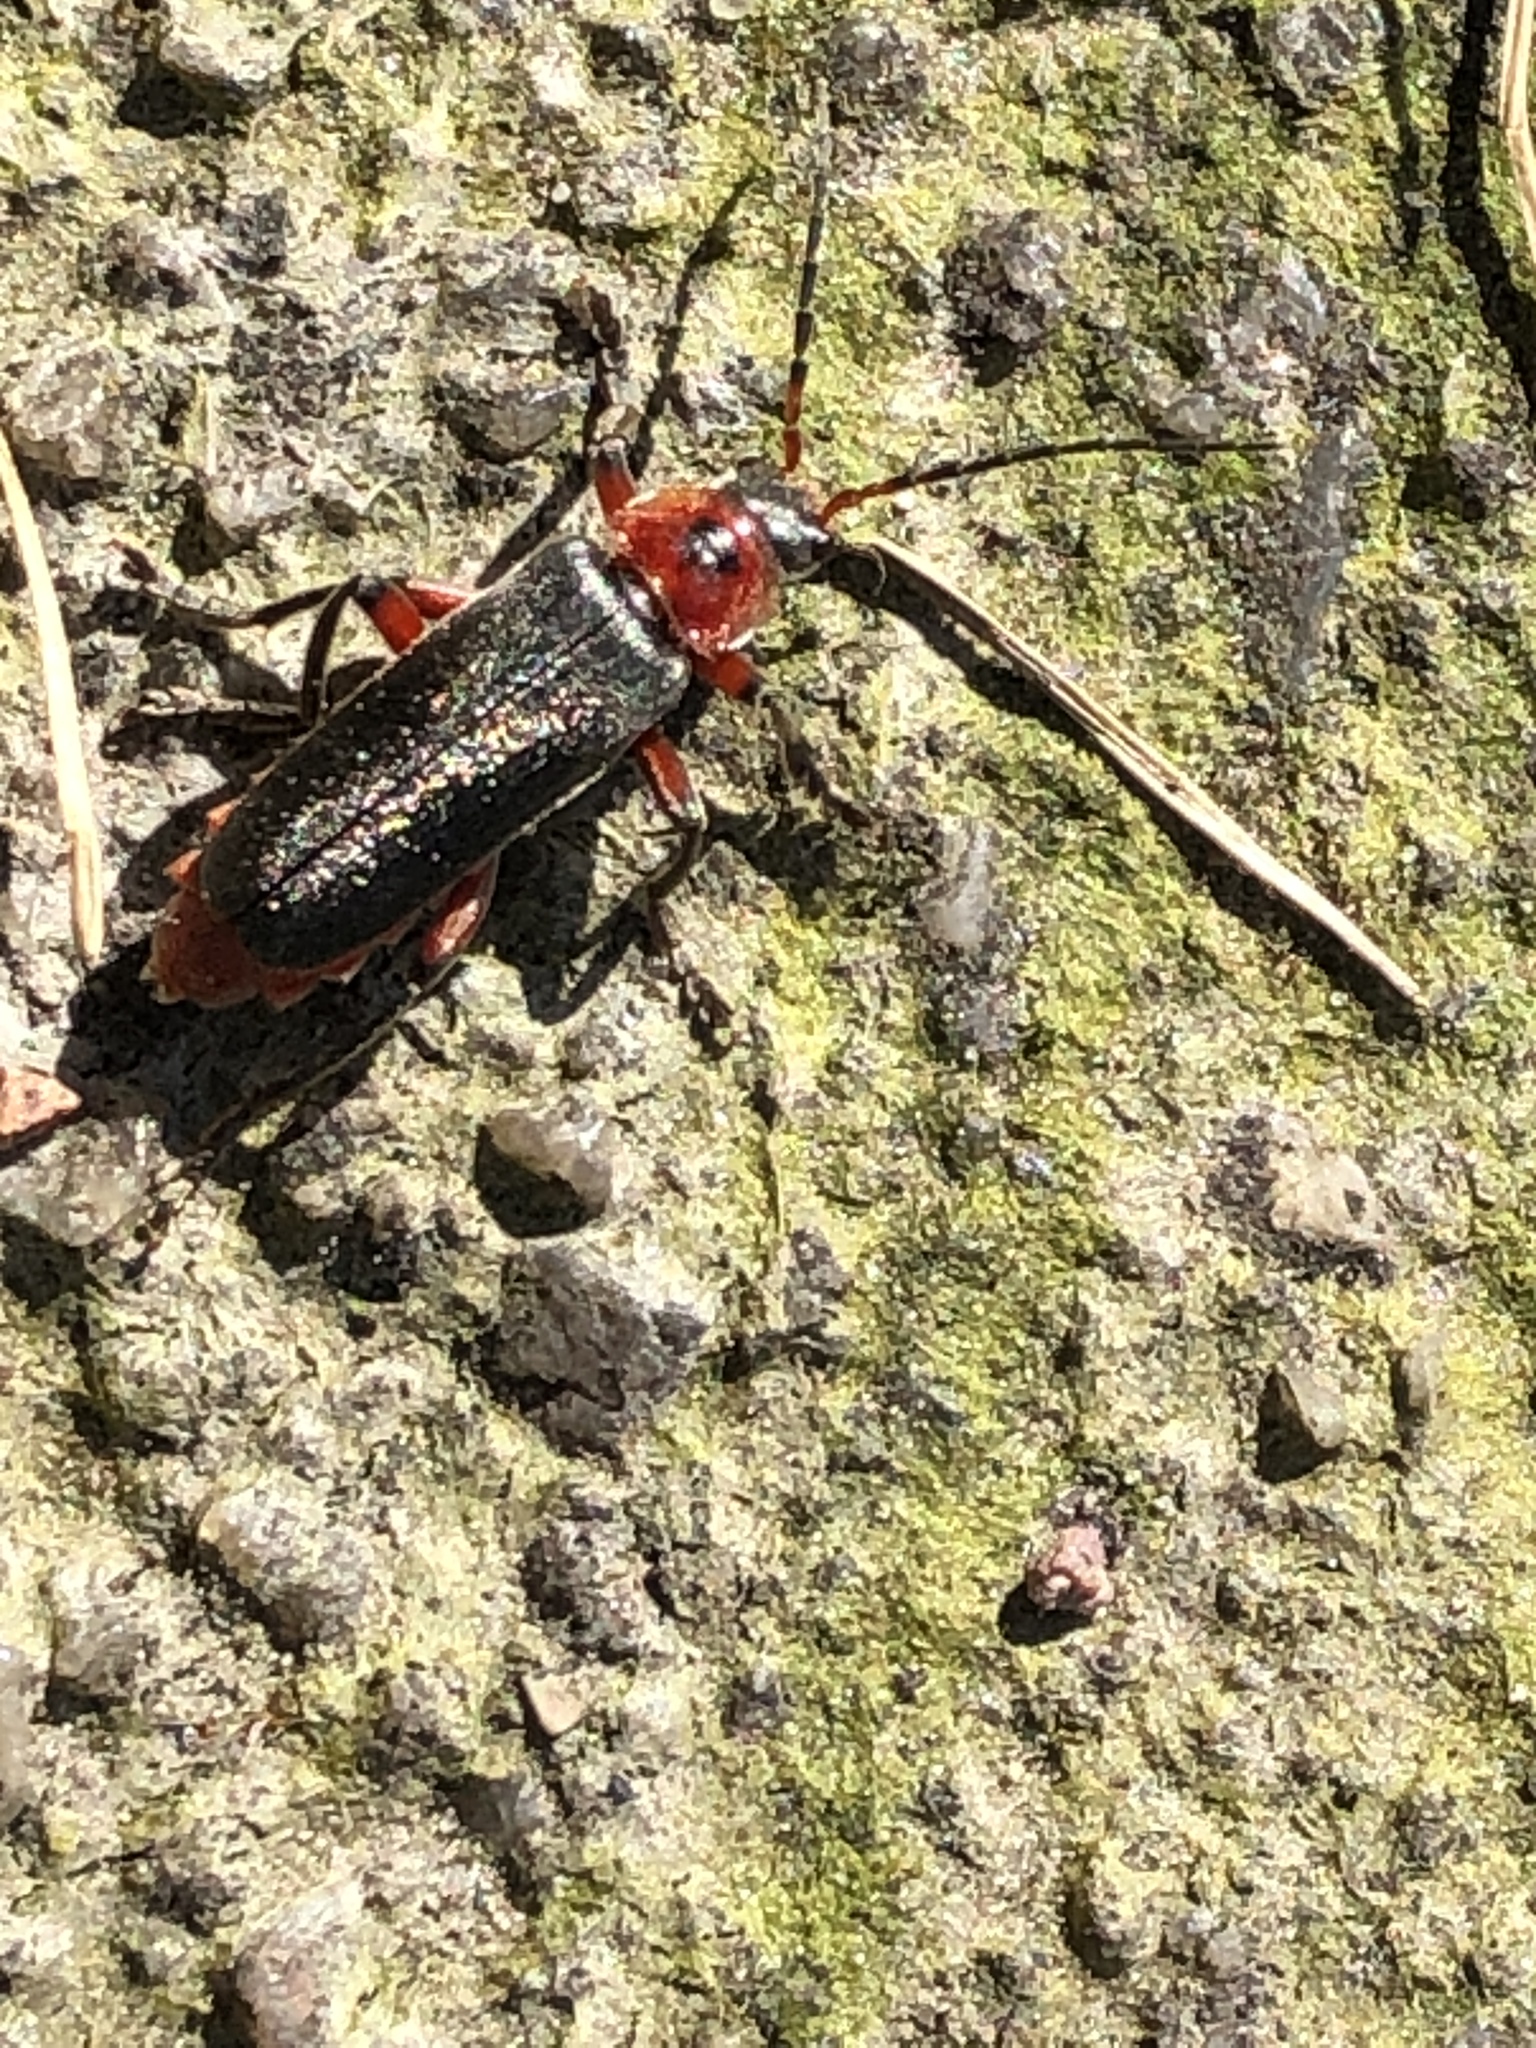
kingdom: Animalia
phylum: Arthropoda
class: Insecta
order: Coleoptera
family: Cantharidae
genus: Cantharis
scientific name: Cantharis rustica
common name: Soldier beetle
